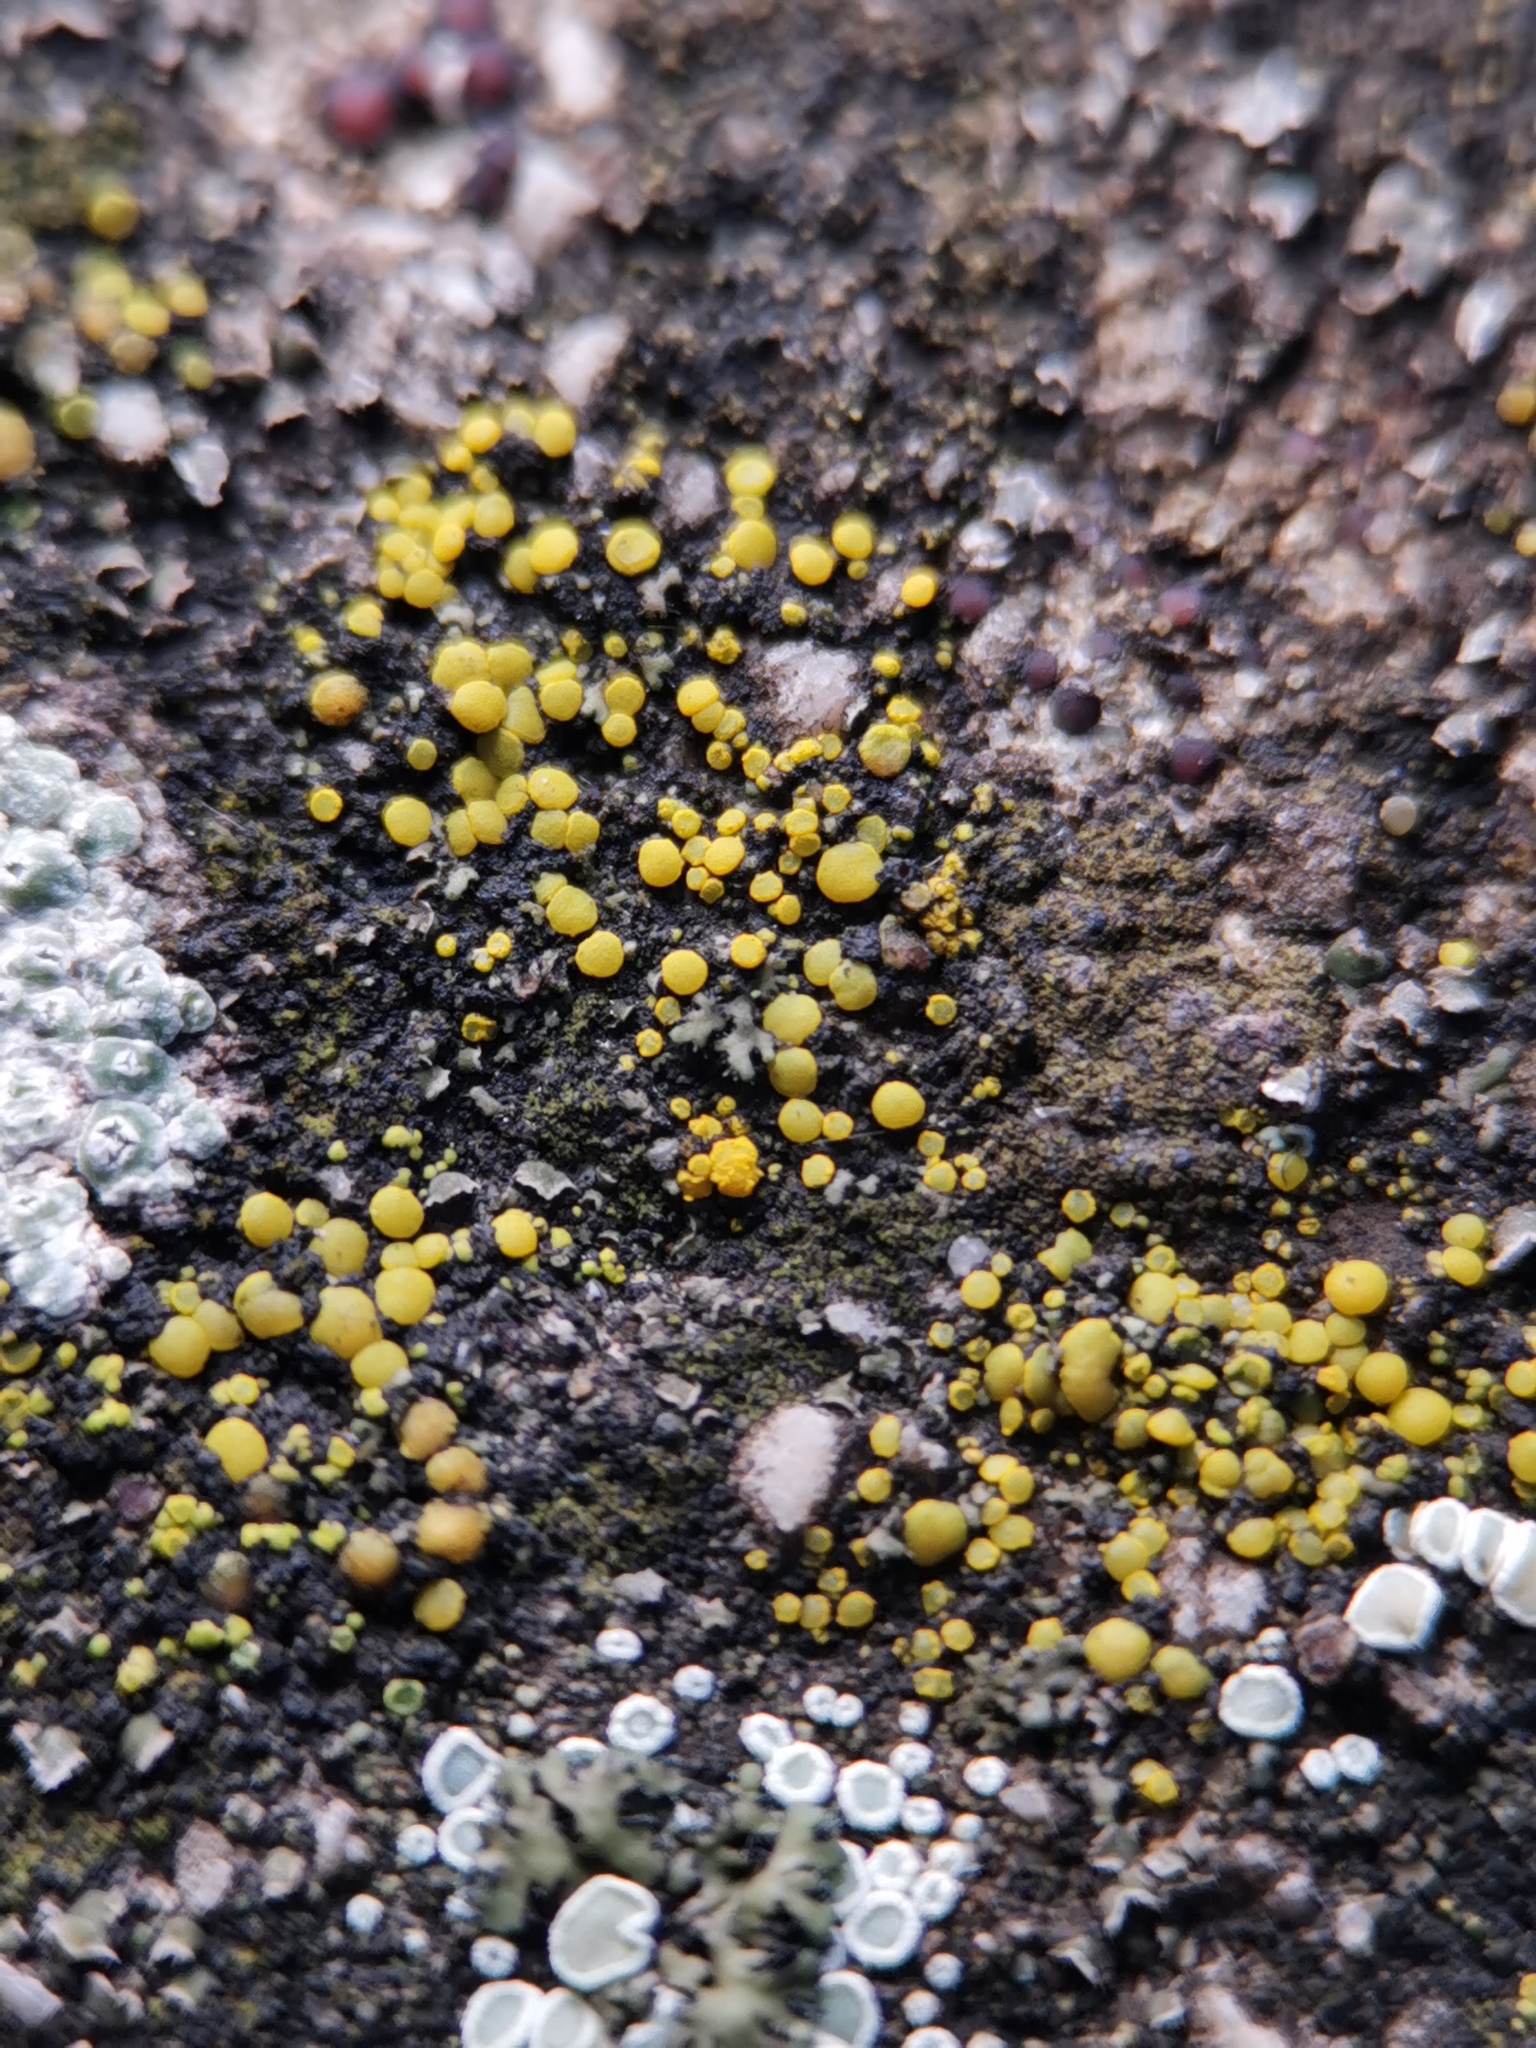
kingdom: Fungi
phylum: Ascomycota
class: Candelariomycetes
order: Candelariales
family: Candelariaceae
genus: Candelariella
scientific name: Candelariella aurella
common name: Hidden goldspeck lichen
